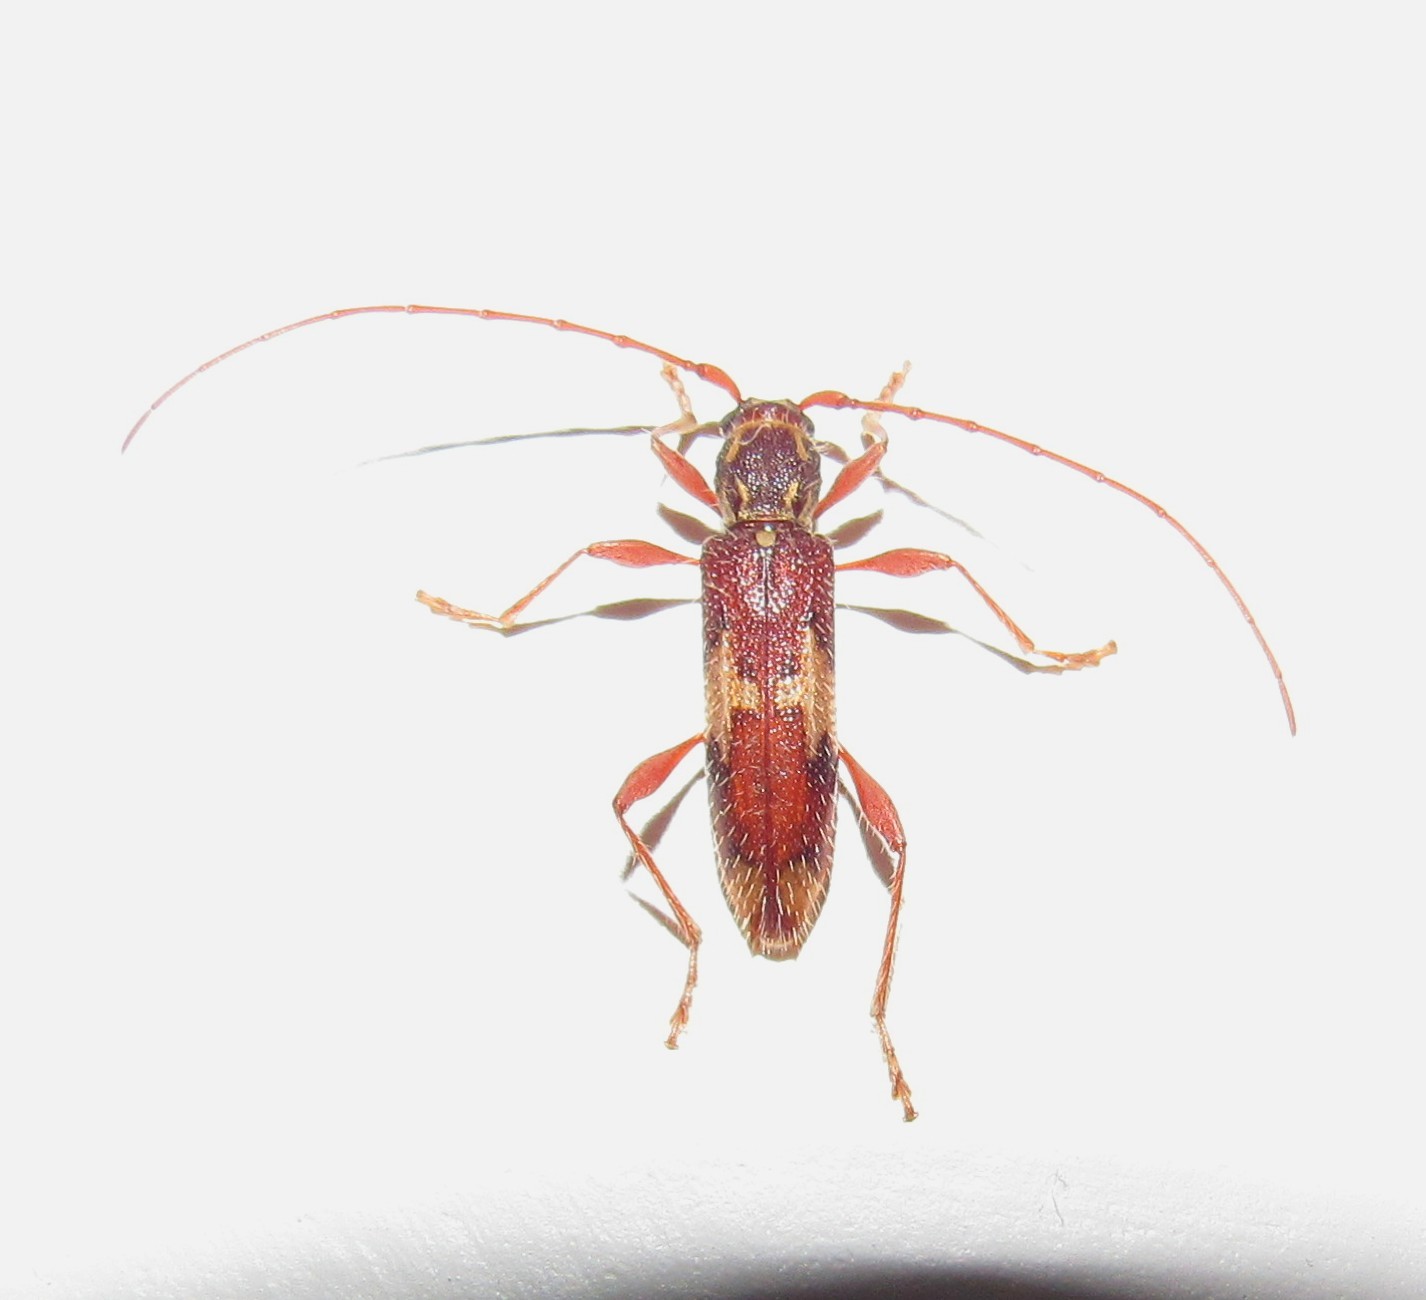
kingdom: Animalia
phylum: Arthropoda
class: Insecta
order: Coleoptera
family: Cerambycidae
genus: Ambonus
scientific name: Ambonus variatus
